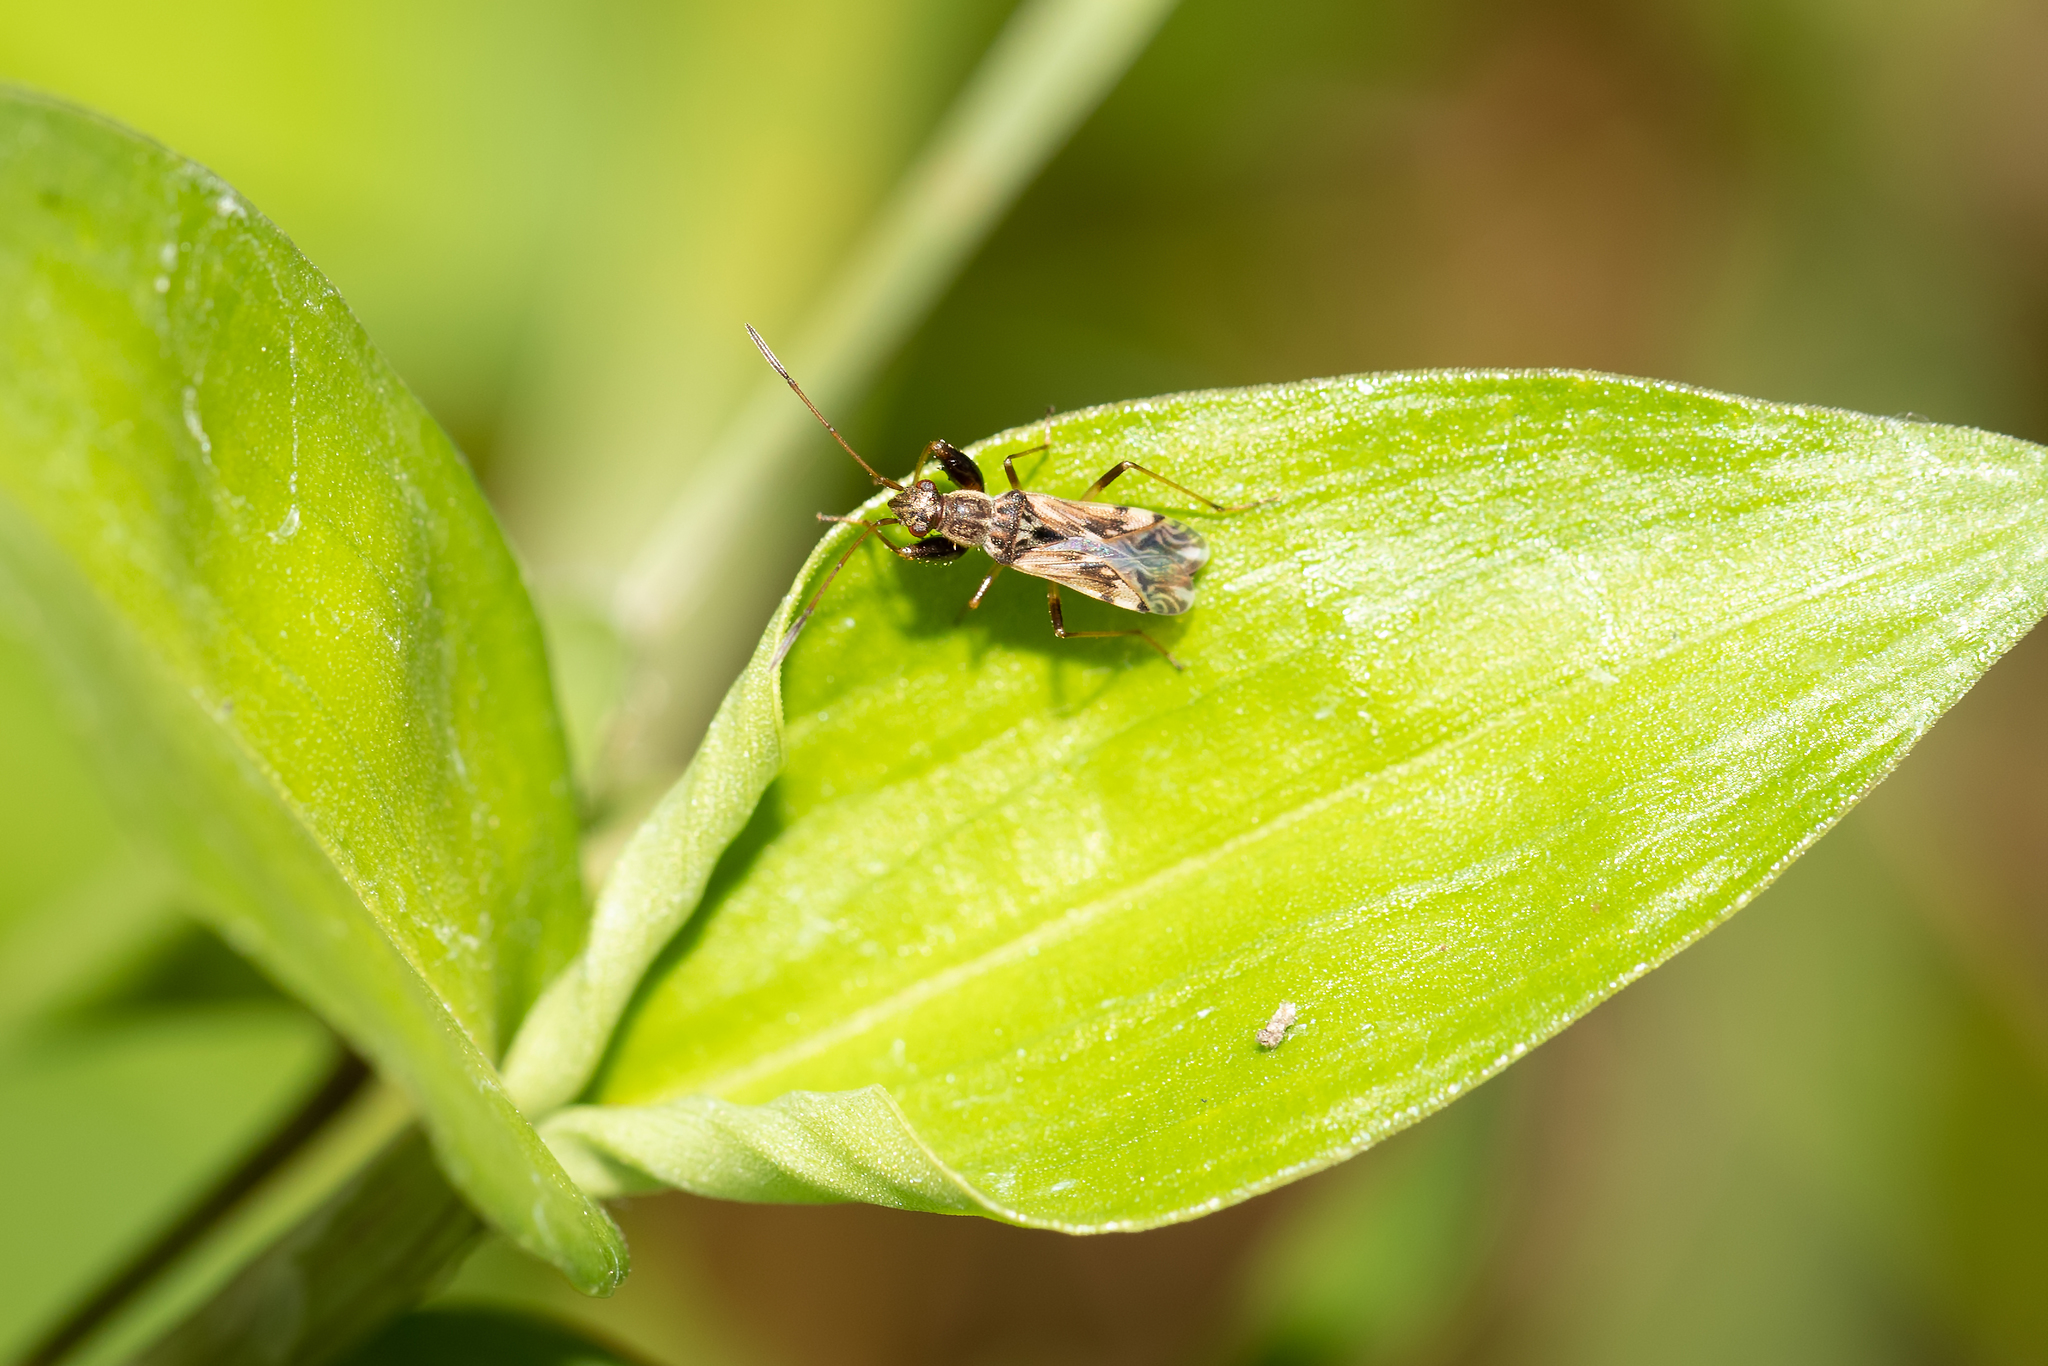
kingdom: Animalia
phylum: Arthropoda
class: Insecta
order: Hemiptera
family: Rhyparochromidae
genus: Neopamera
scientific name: Neopamera bilobata
